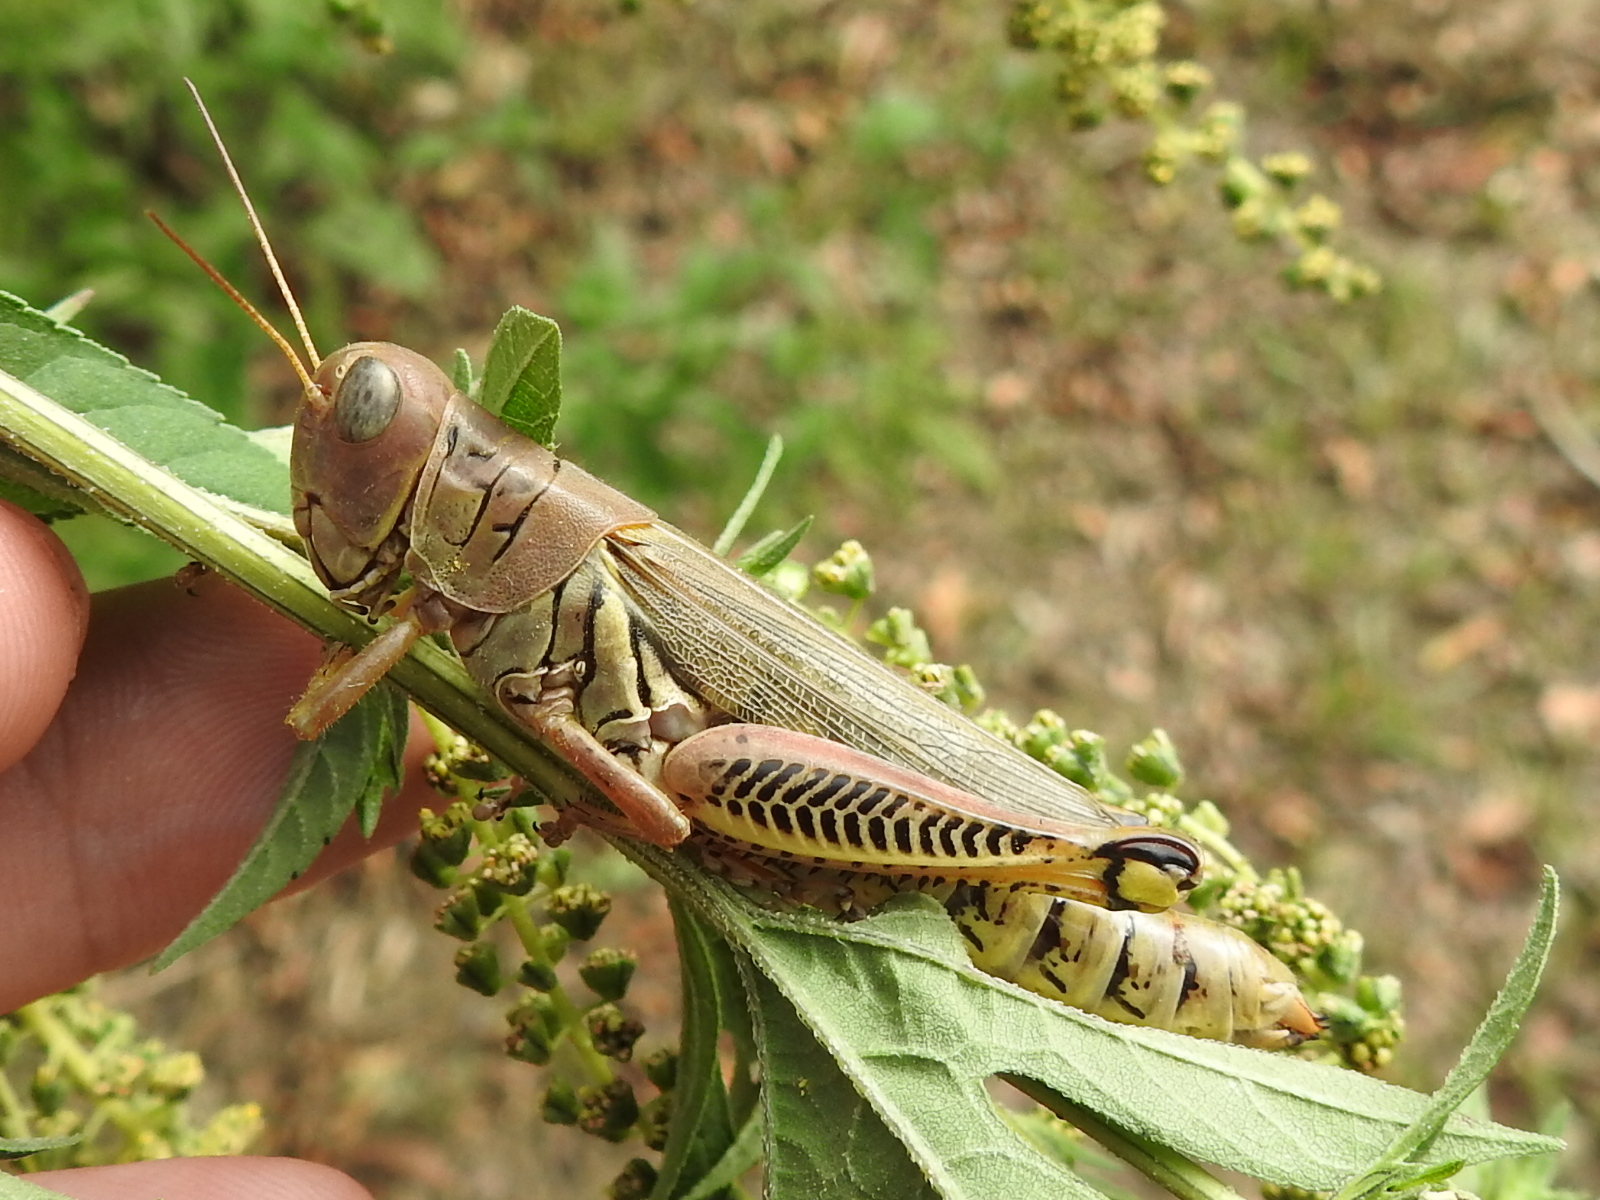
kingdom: Animalia
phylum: Arthropoda
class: Insecta
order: Orthoptera
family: Acrididae
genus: Melanoplus
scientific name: Melanoplus differentialis
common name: Differential grasshopper
